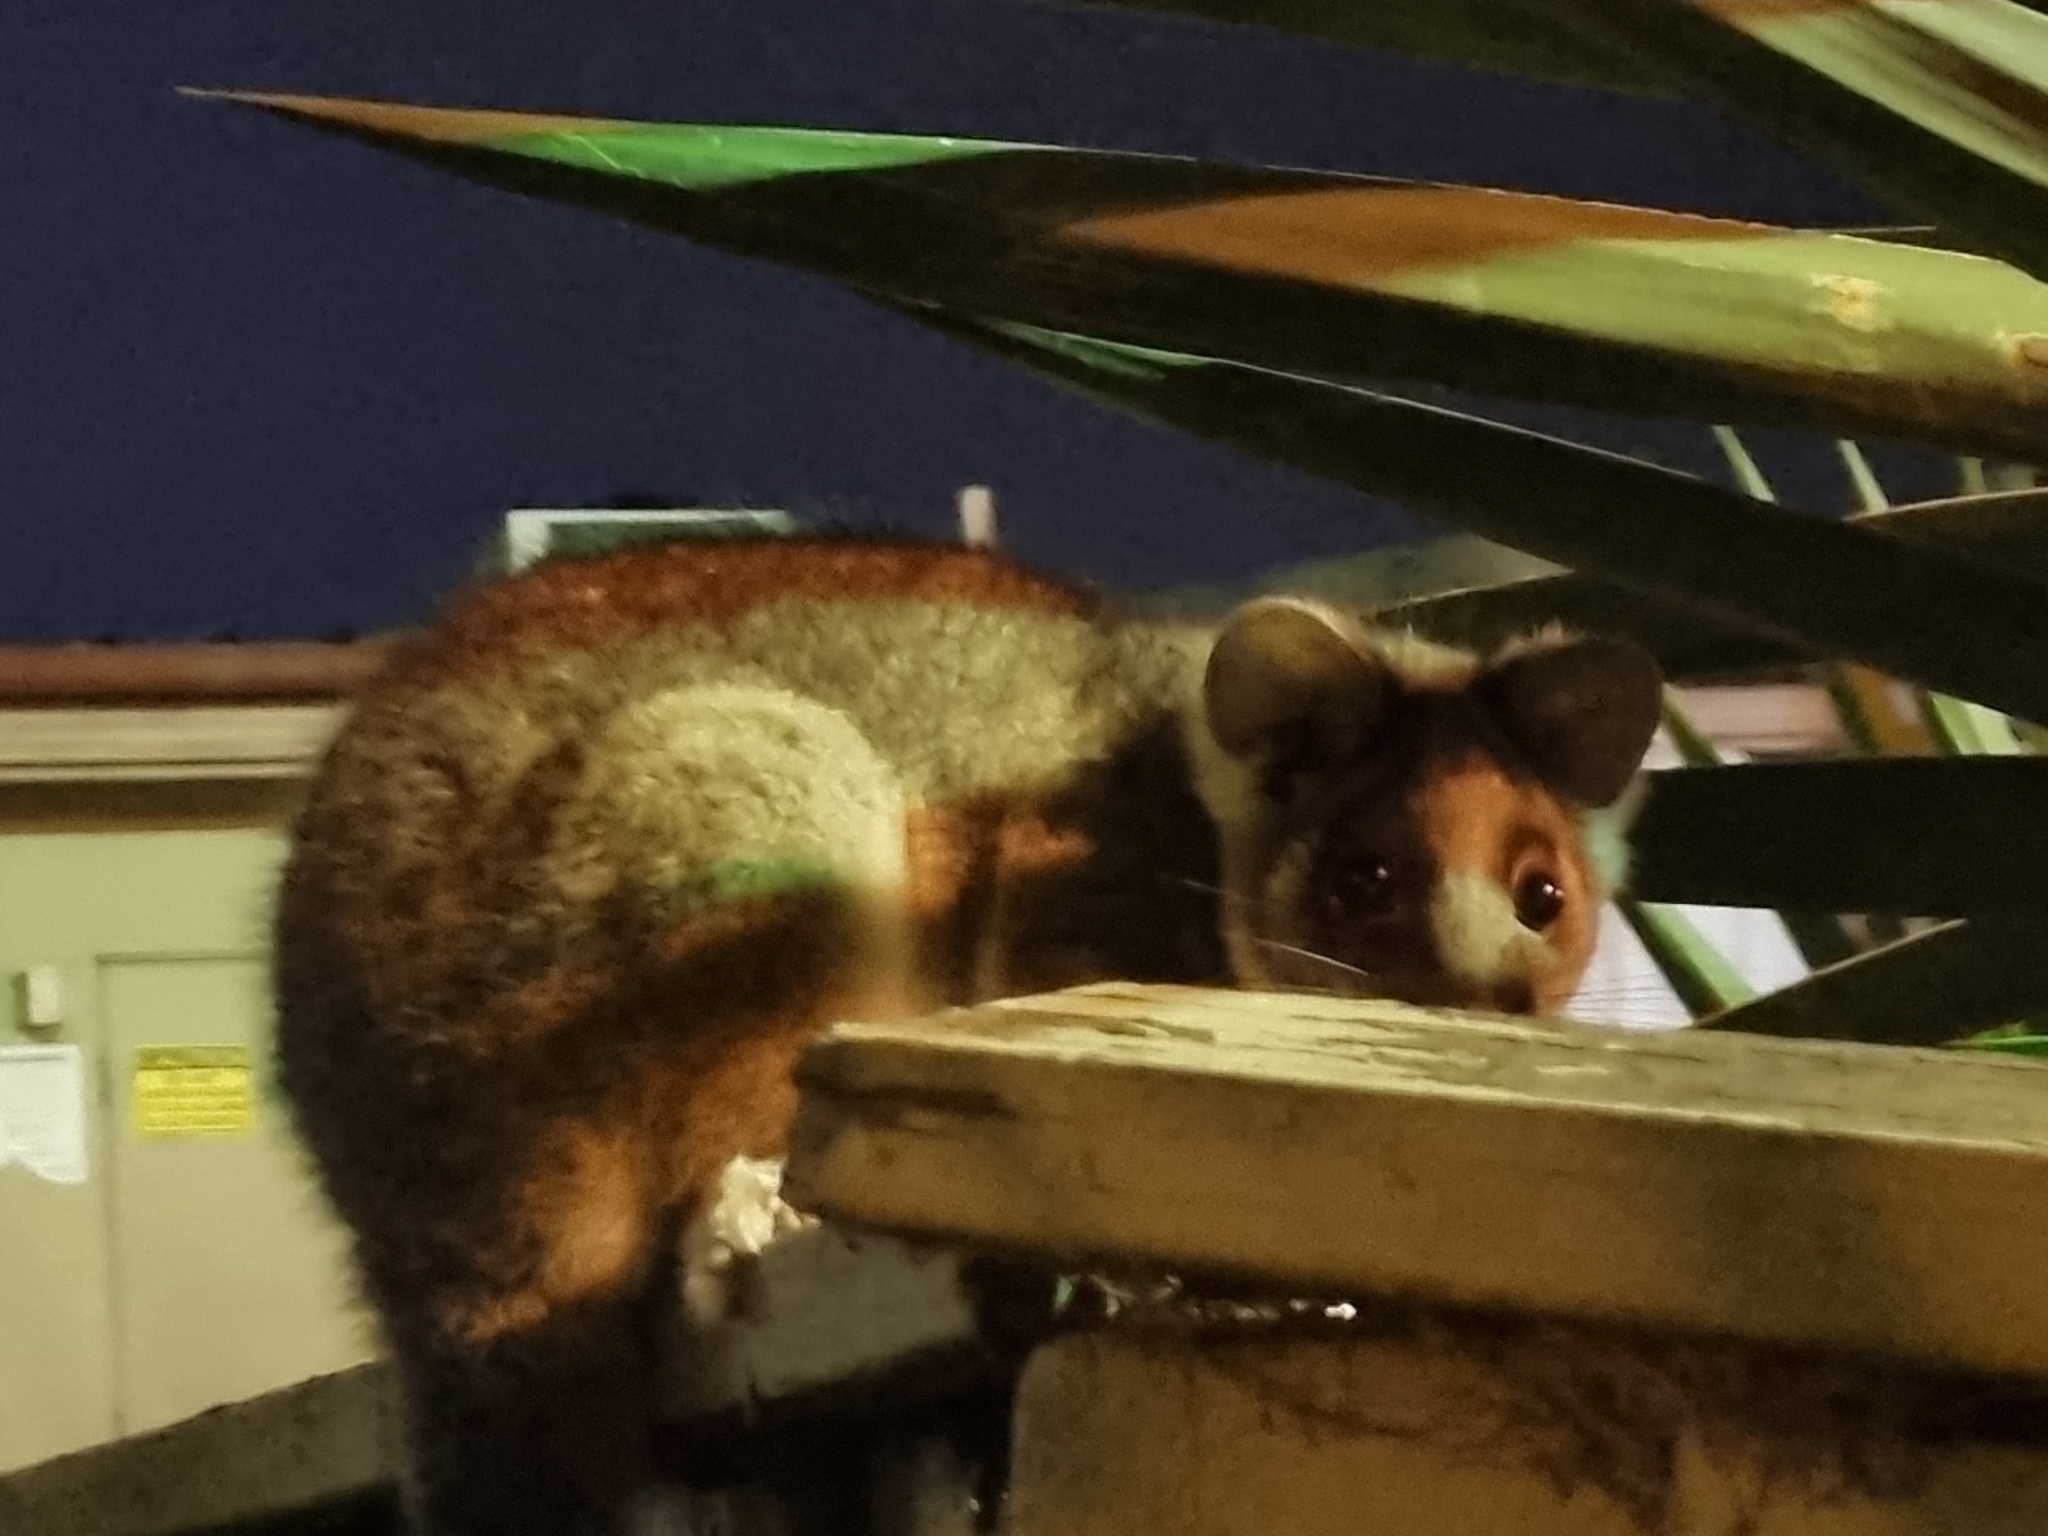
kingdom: Animalia
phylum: Chordata
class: Mammalia
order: Diprotodontia
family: Pseudocheiridae
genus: Pseudocheirus
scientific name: Pseudocheirus peregrinus
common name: Common ringtail possum
